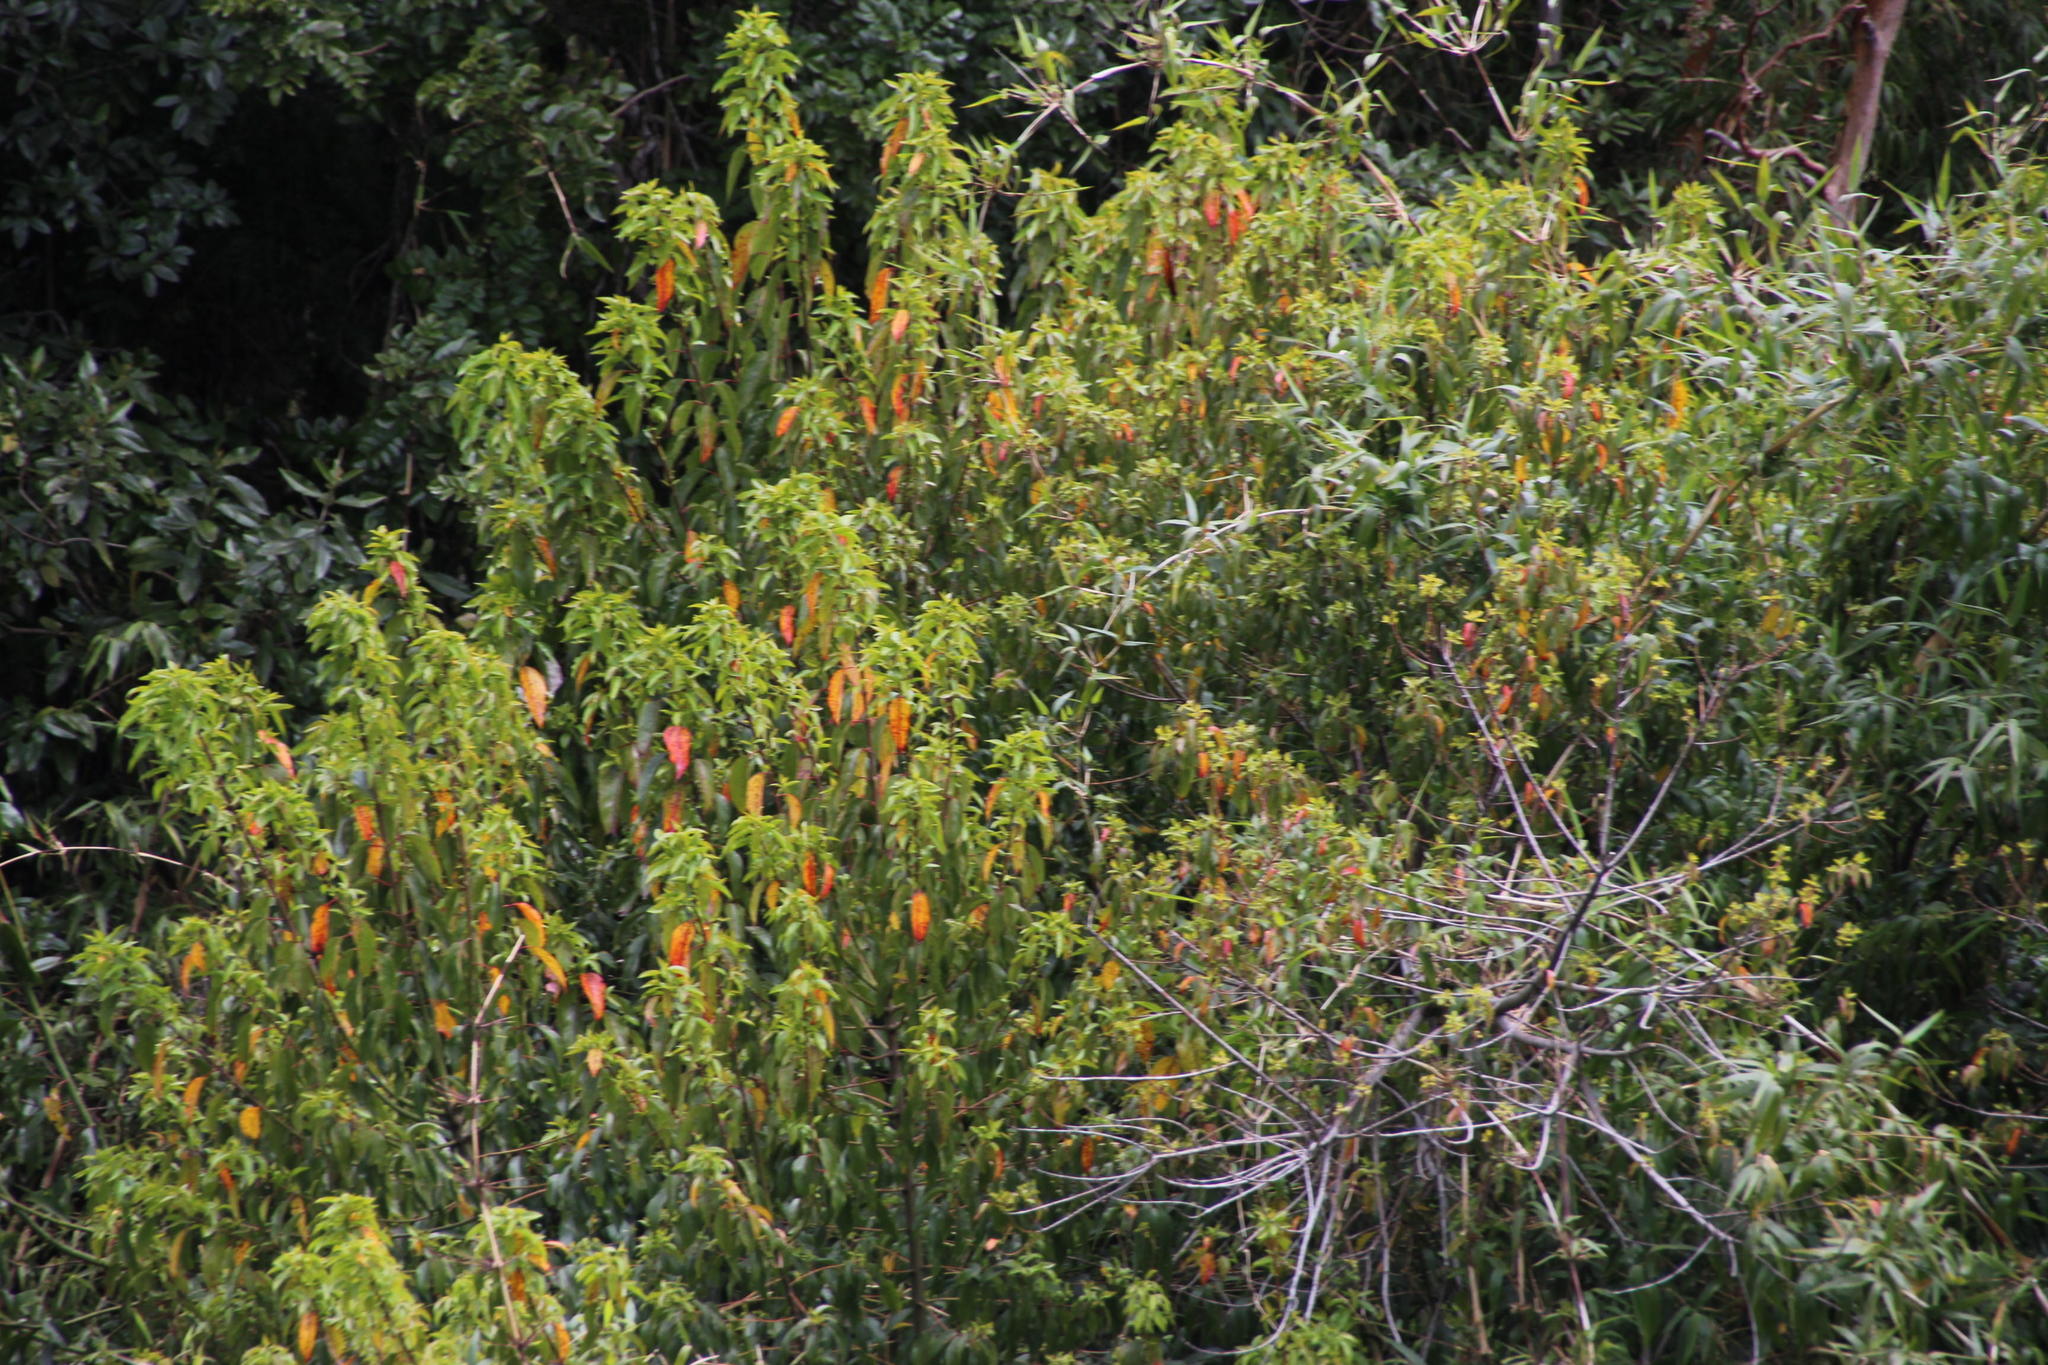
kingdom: Plantae
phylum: Tracheophyta
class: Magnoliopsida
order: Oxalidales
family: Elaeocarpaceae
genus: Aristotelia
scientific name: Aristotelia chilensis
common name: Maquei
